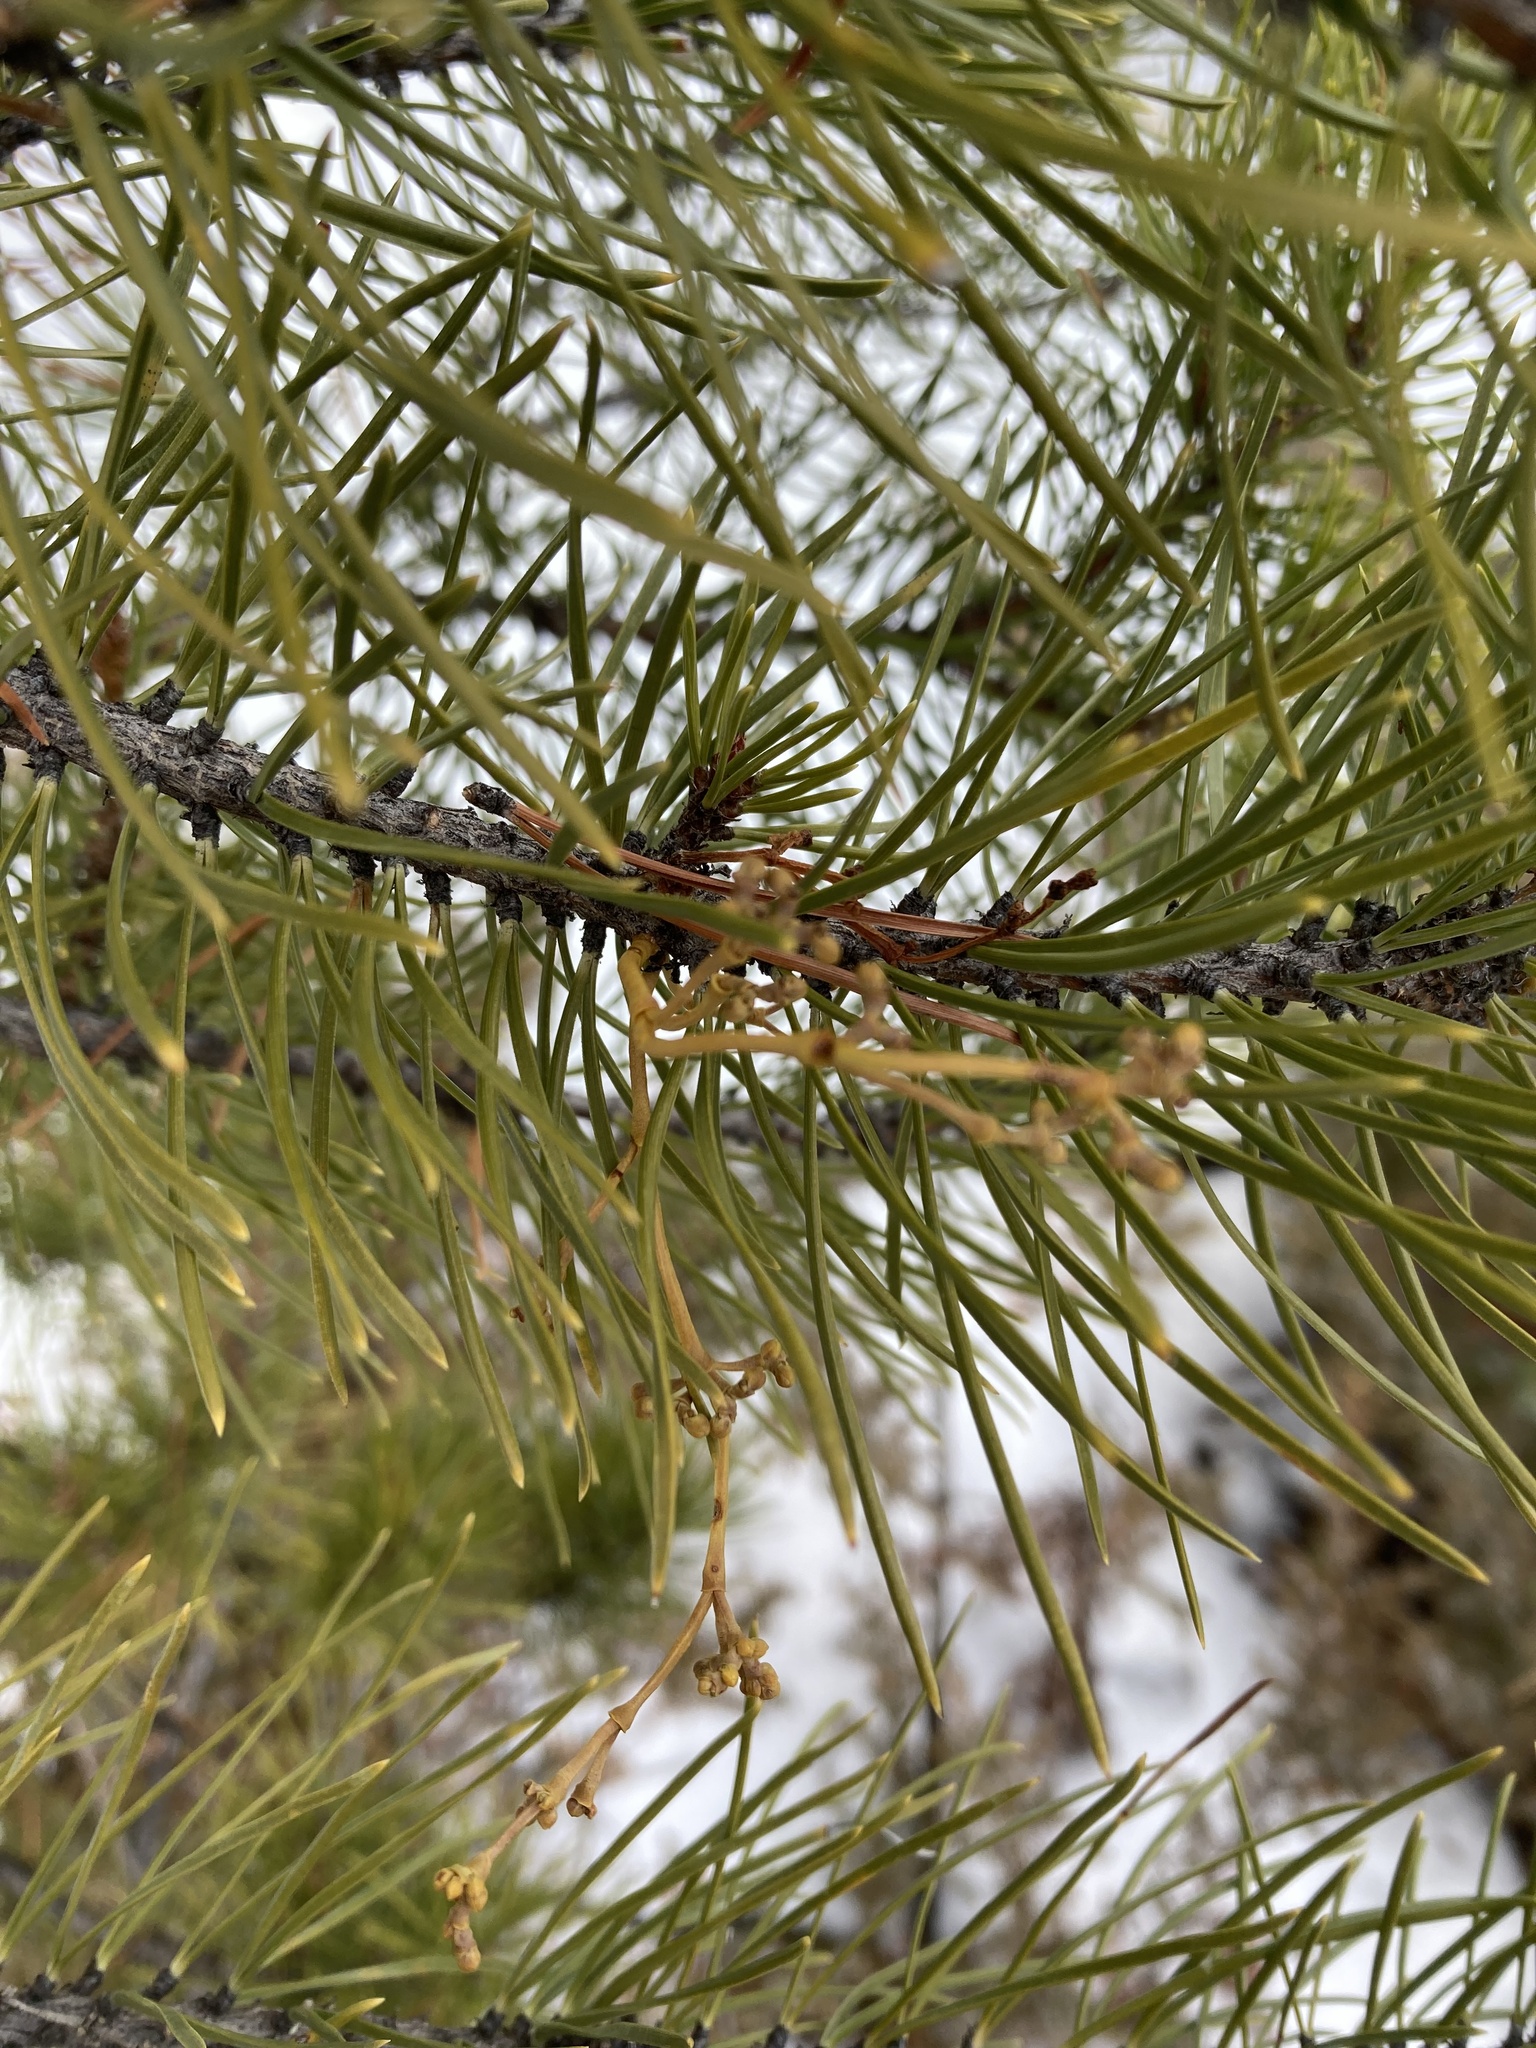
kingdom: Plantae
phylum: Tracheophyta
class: Magnoliopsida
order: Santalales
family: Viscaceae
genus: Arceuthobium
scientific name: Arceuthobium americanum
